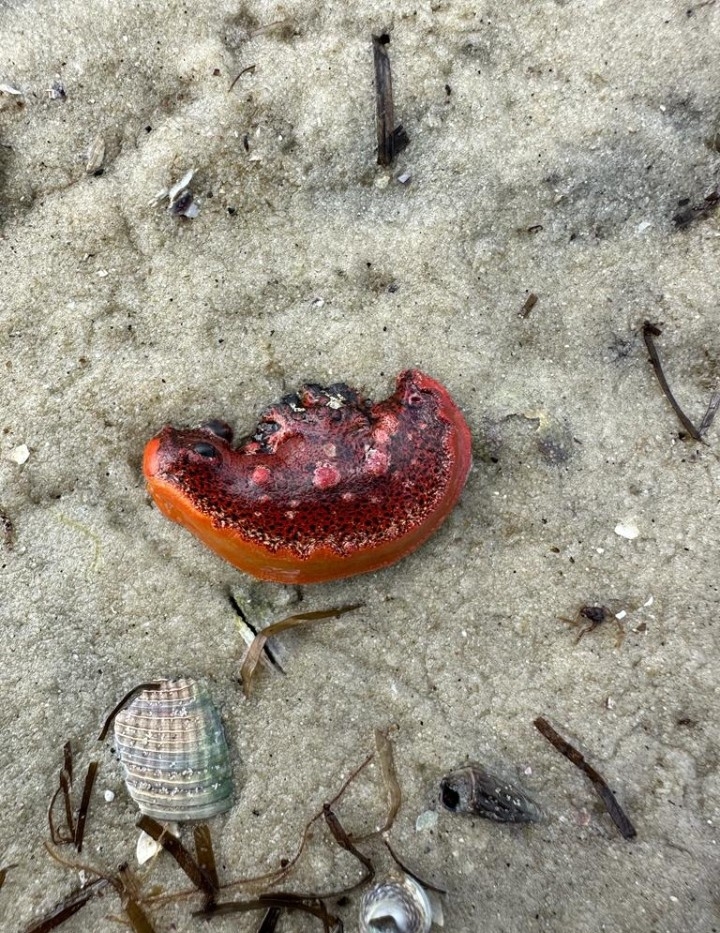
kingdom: Animalia
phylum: Mollusca
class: Gastropoda
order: Nudibranchia
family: Polyceridae
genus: Plocamopherus
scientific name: Plocamopherus imperialis
